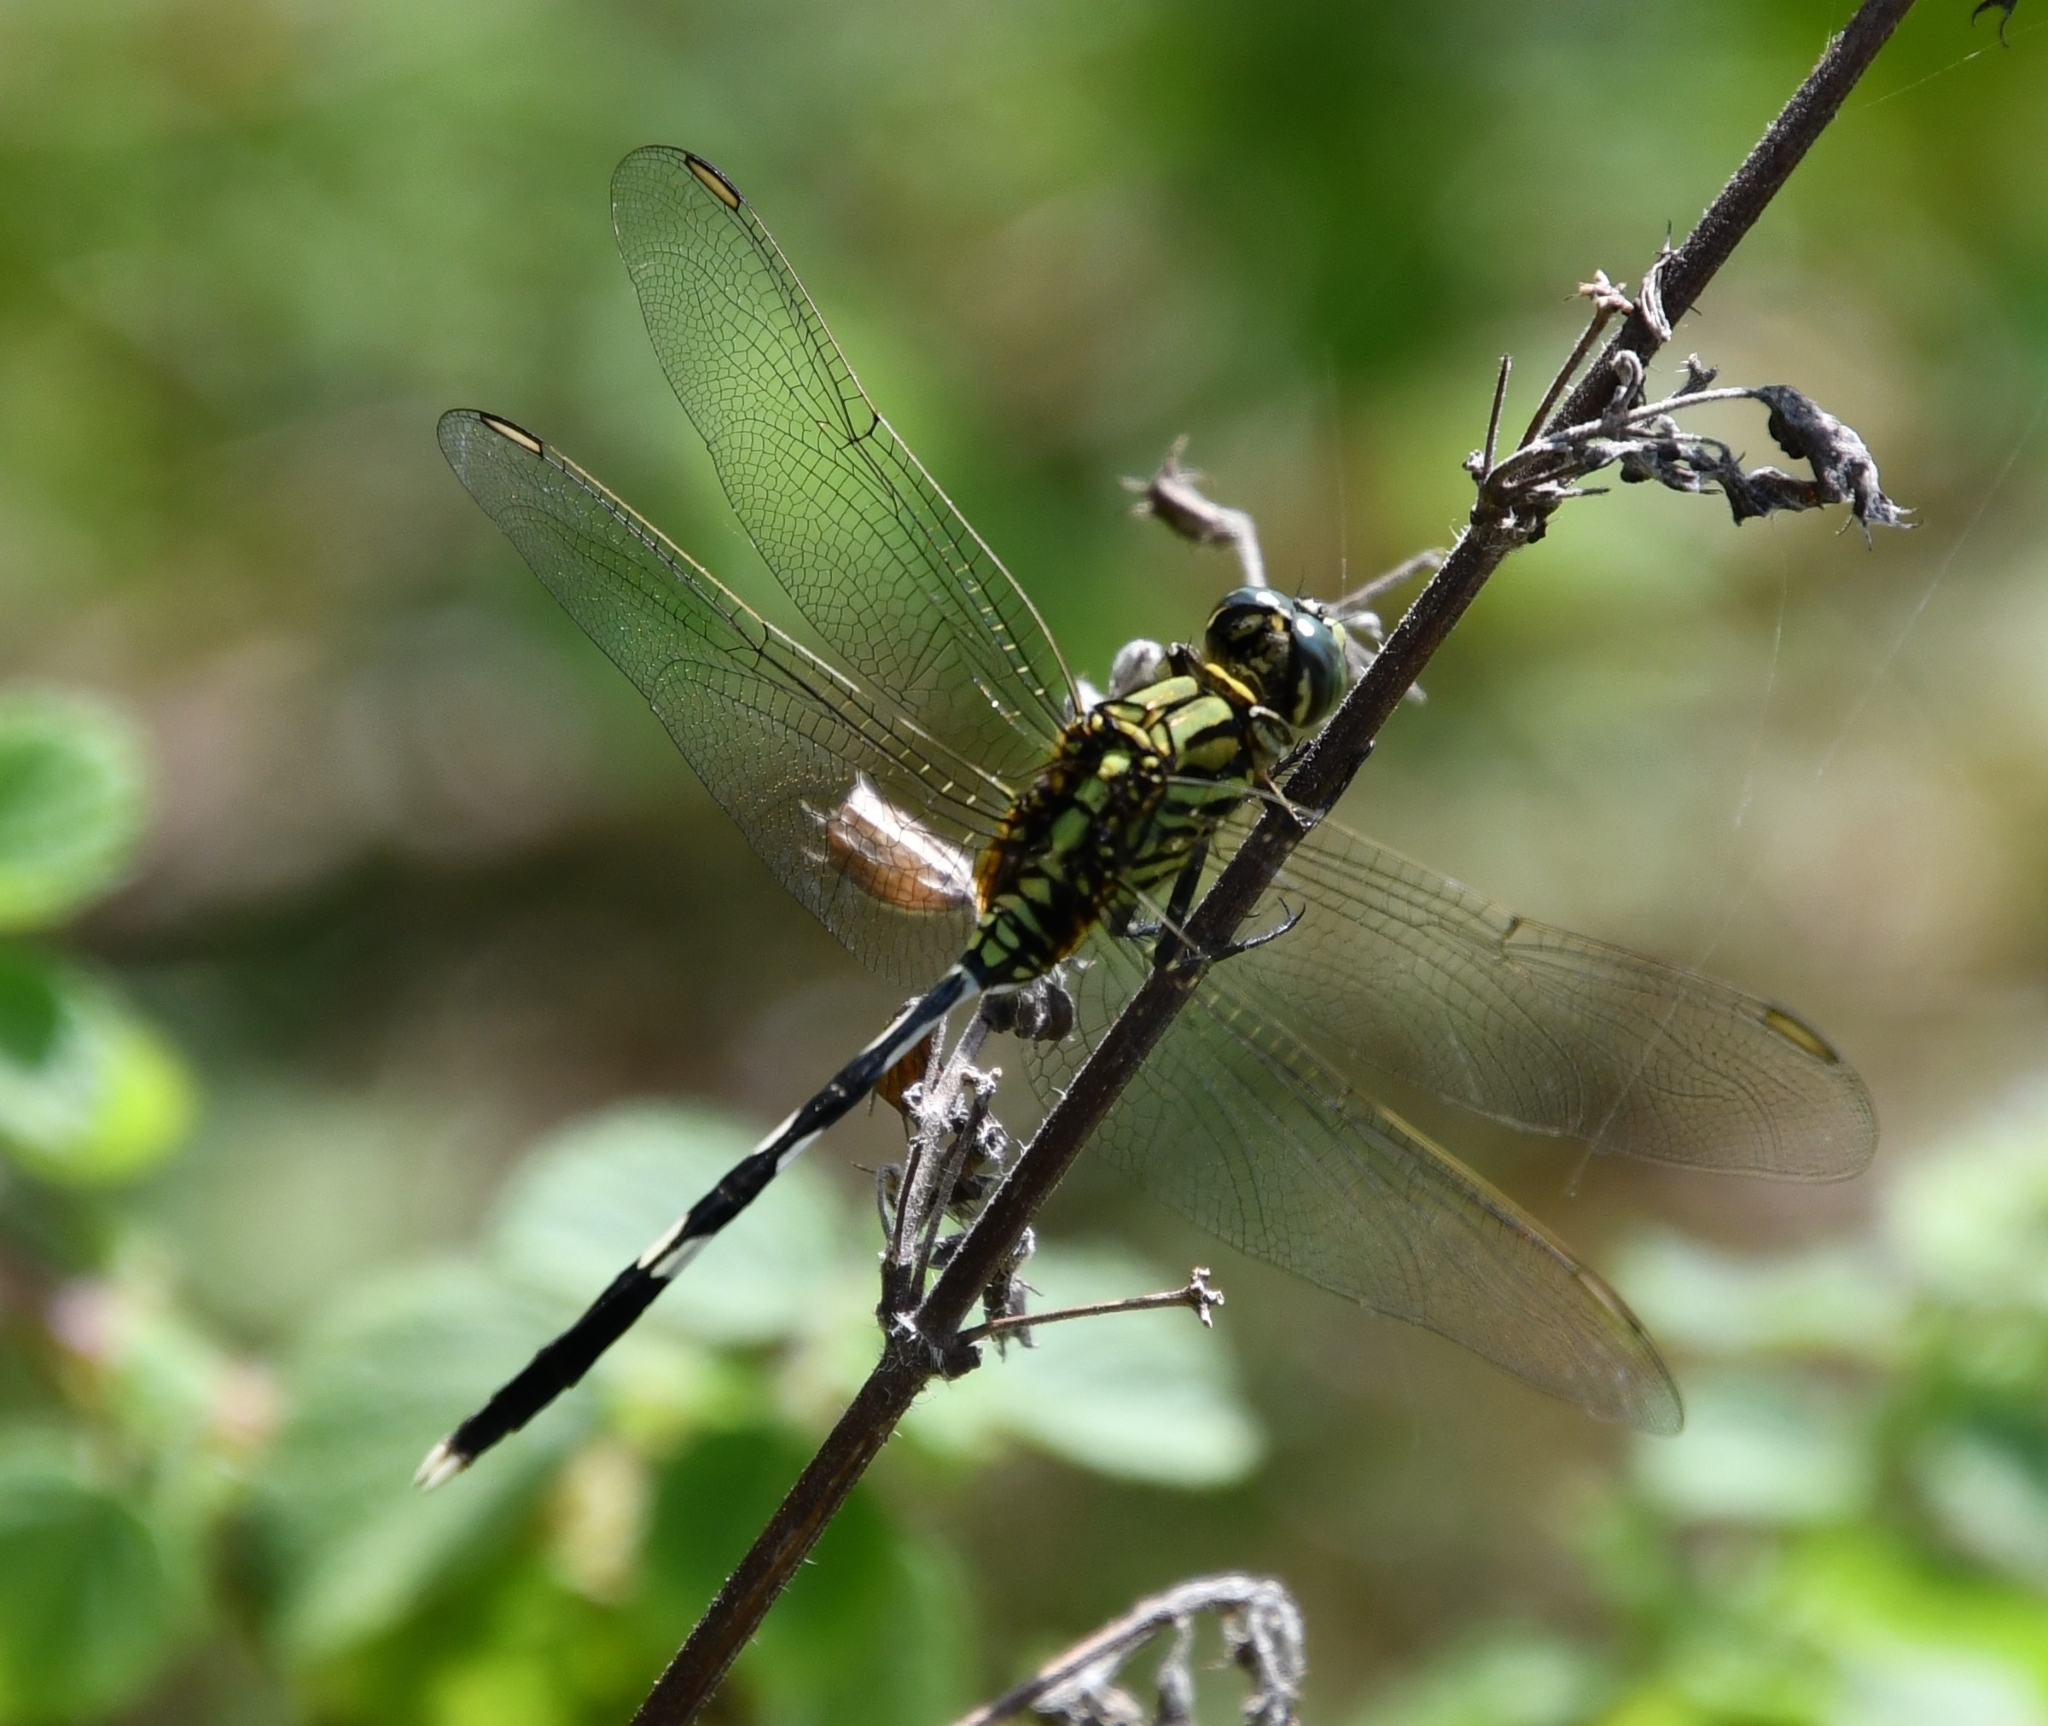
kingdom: Animalia
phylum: Arthropoda
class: Insecta
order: Odonata
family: Libellulidae
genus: Orthetrum
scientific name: Orthetrum sabina
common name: Slender skimmer
